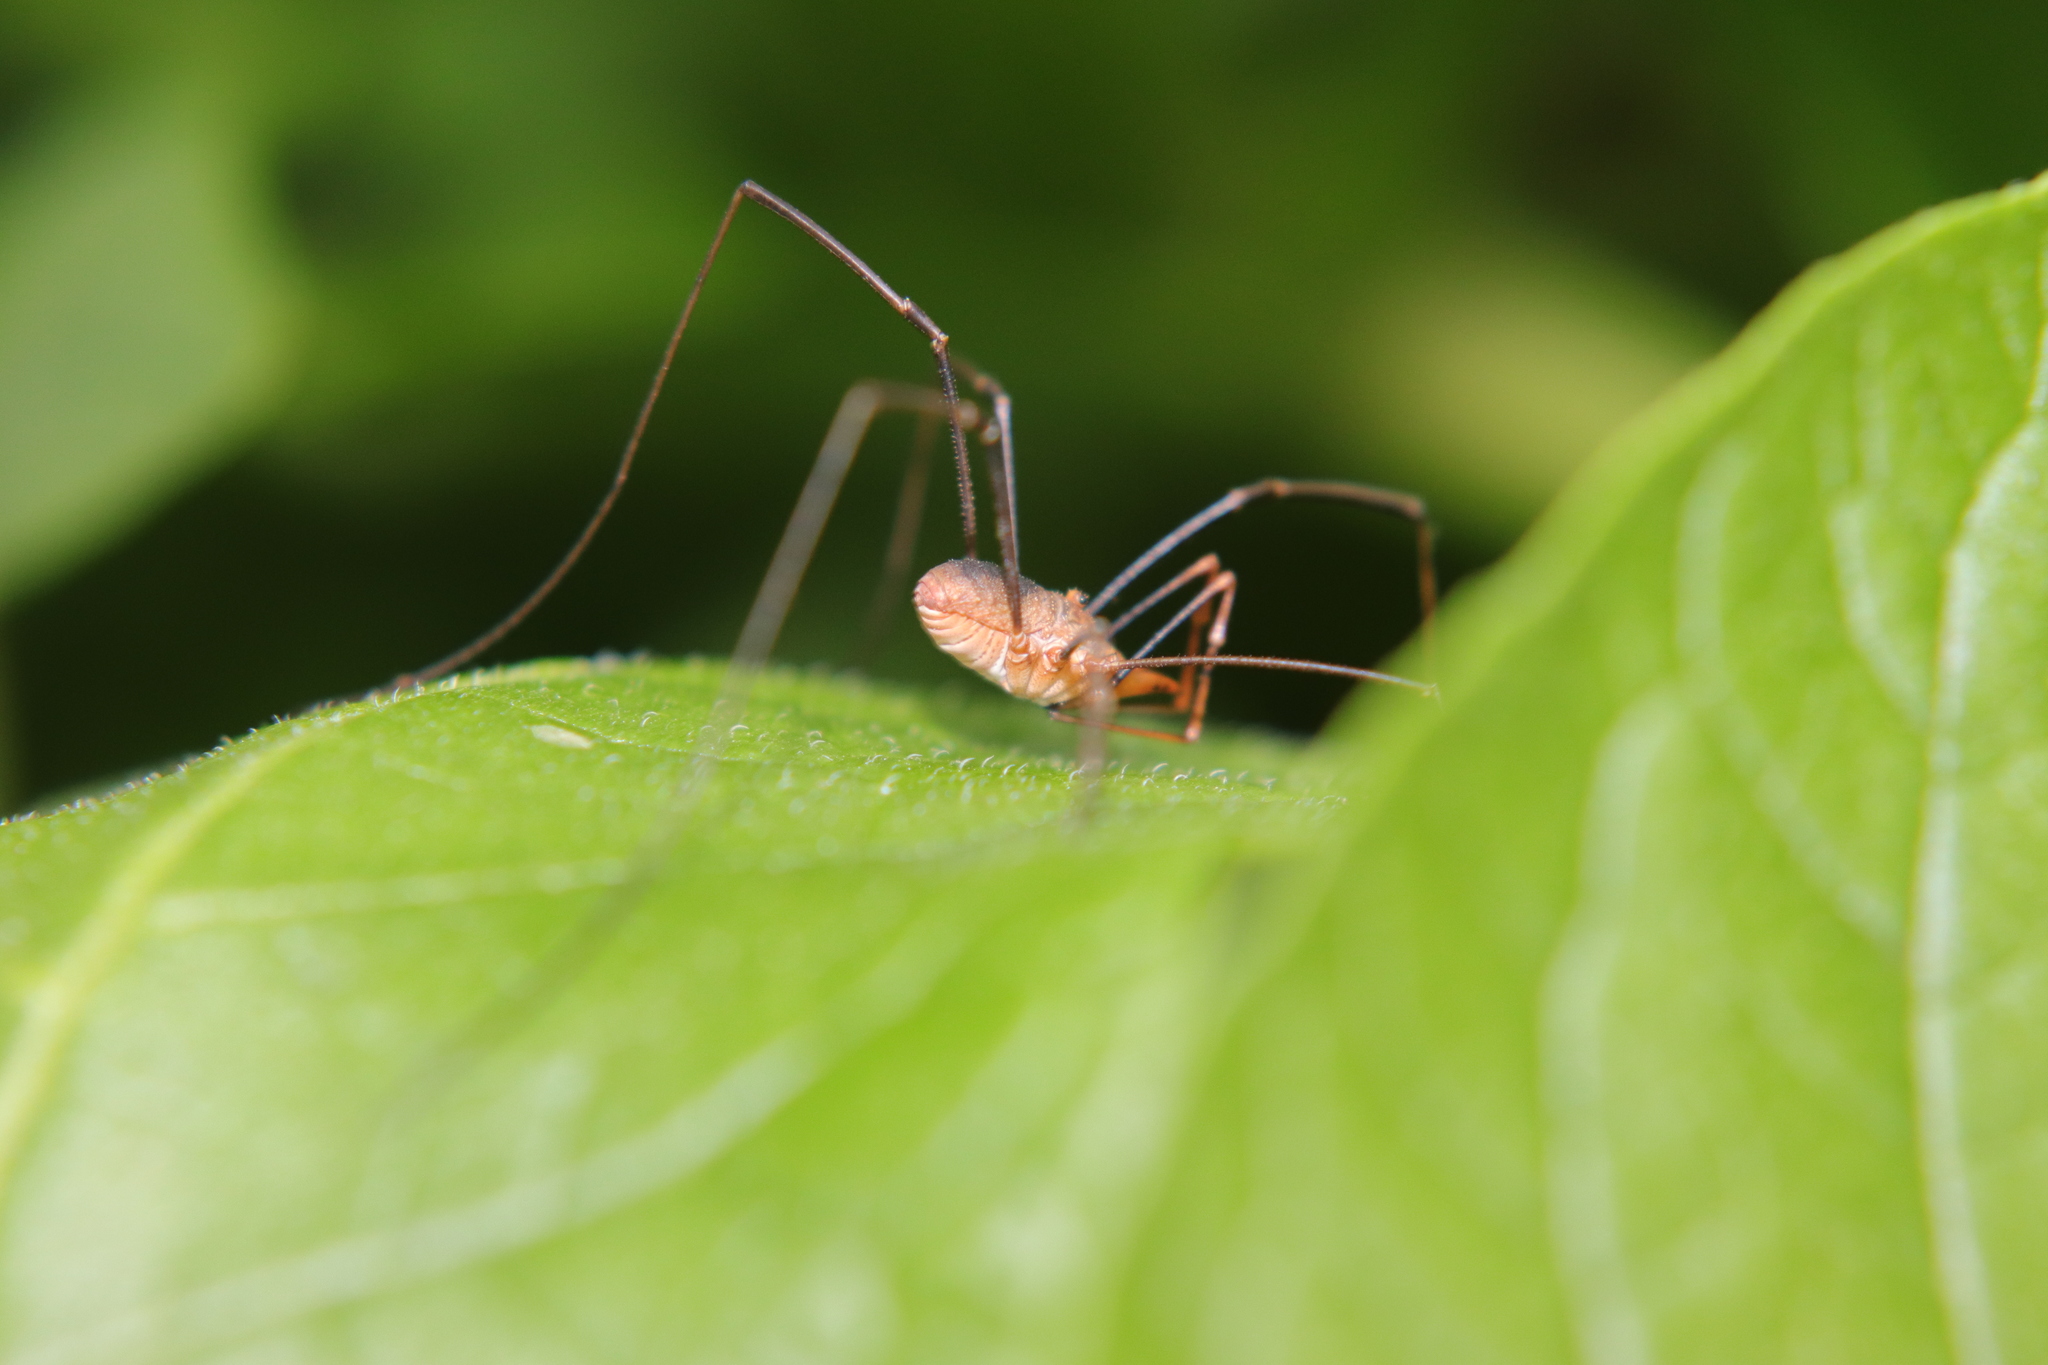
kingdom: Animalia
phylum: Arthropoda
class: Arachnida
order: Opiliones
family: Phalangiidae
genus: Phalangium
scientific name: Phalangium opilio
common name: Daddy longleg
